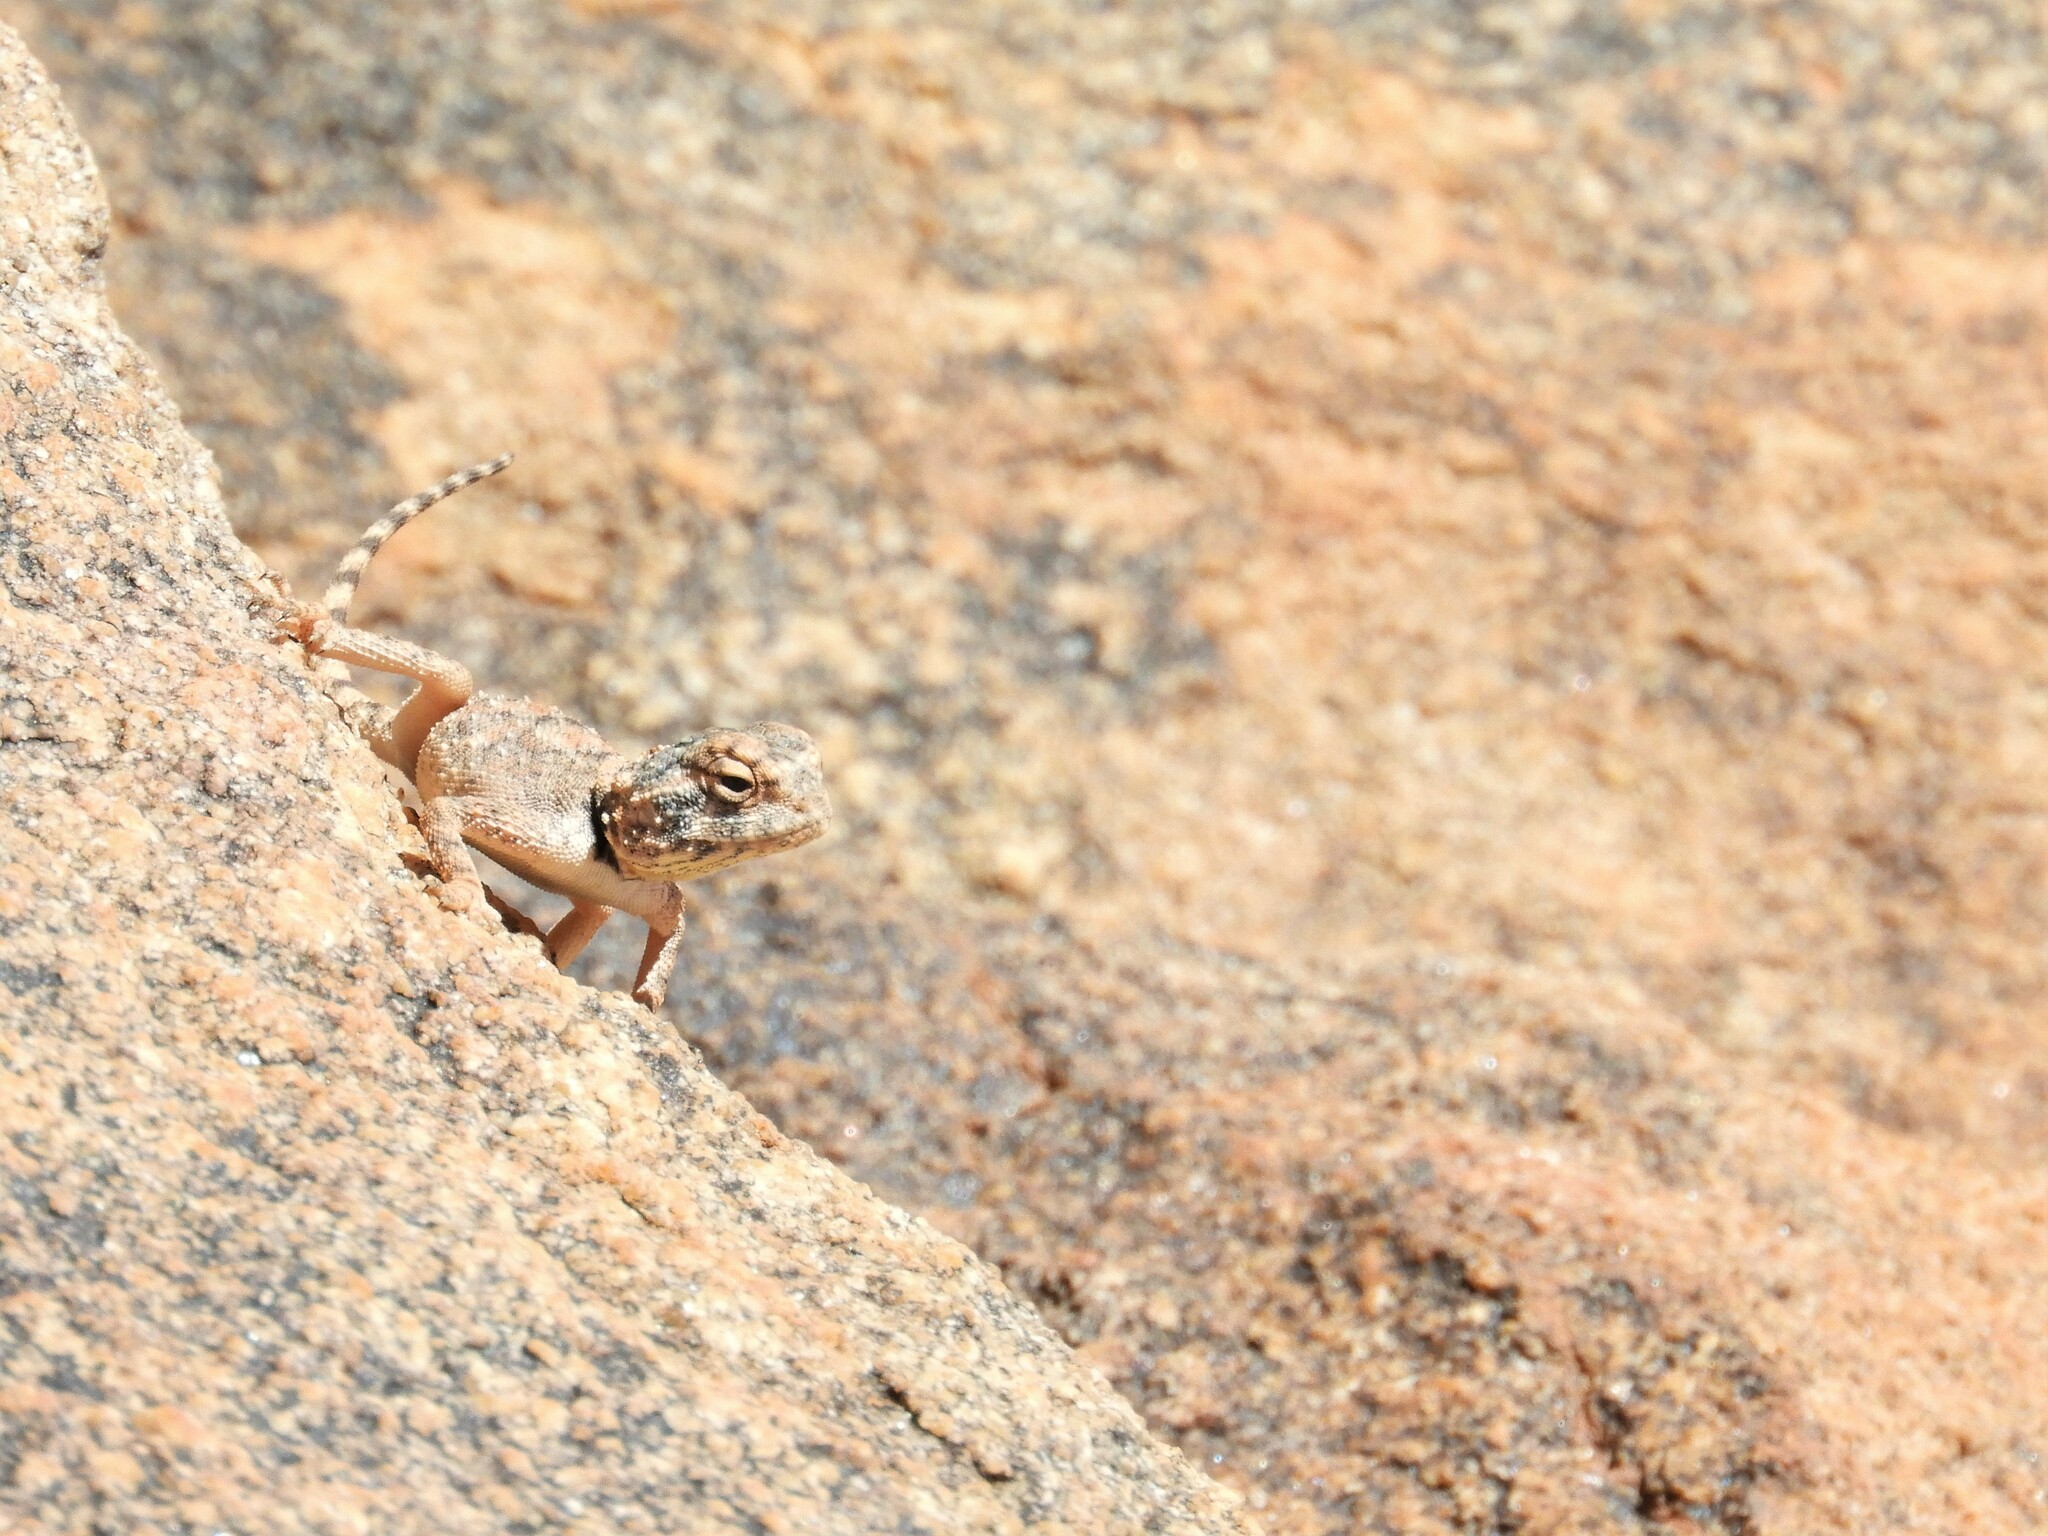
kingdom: Animalia
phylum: Chordata
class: Squamata
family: Agamidae
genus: Agama
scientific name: Agama anchietae
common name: Anchieta's agama
